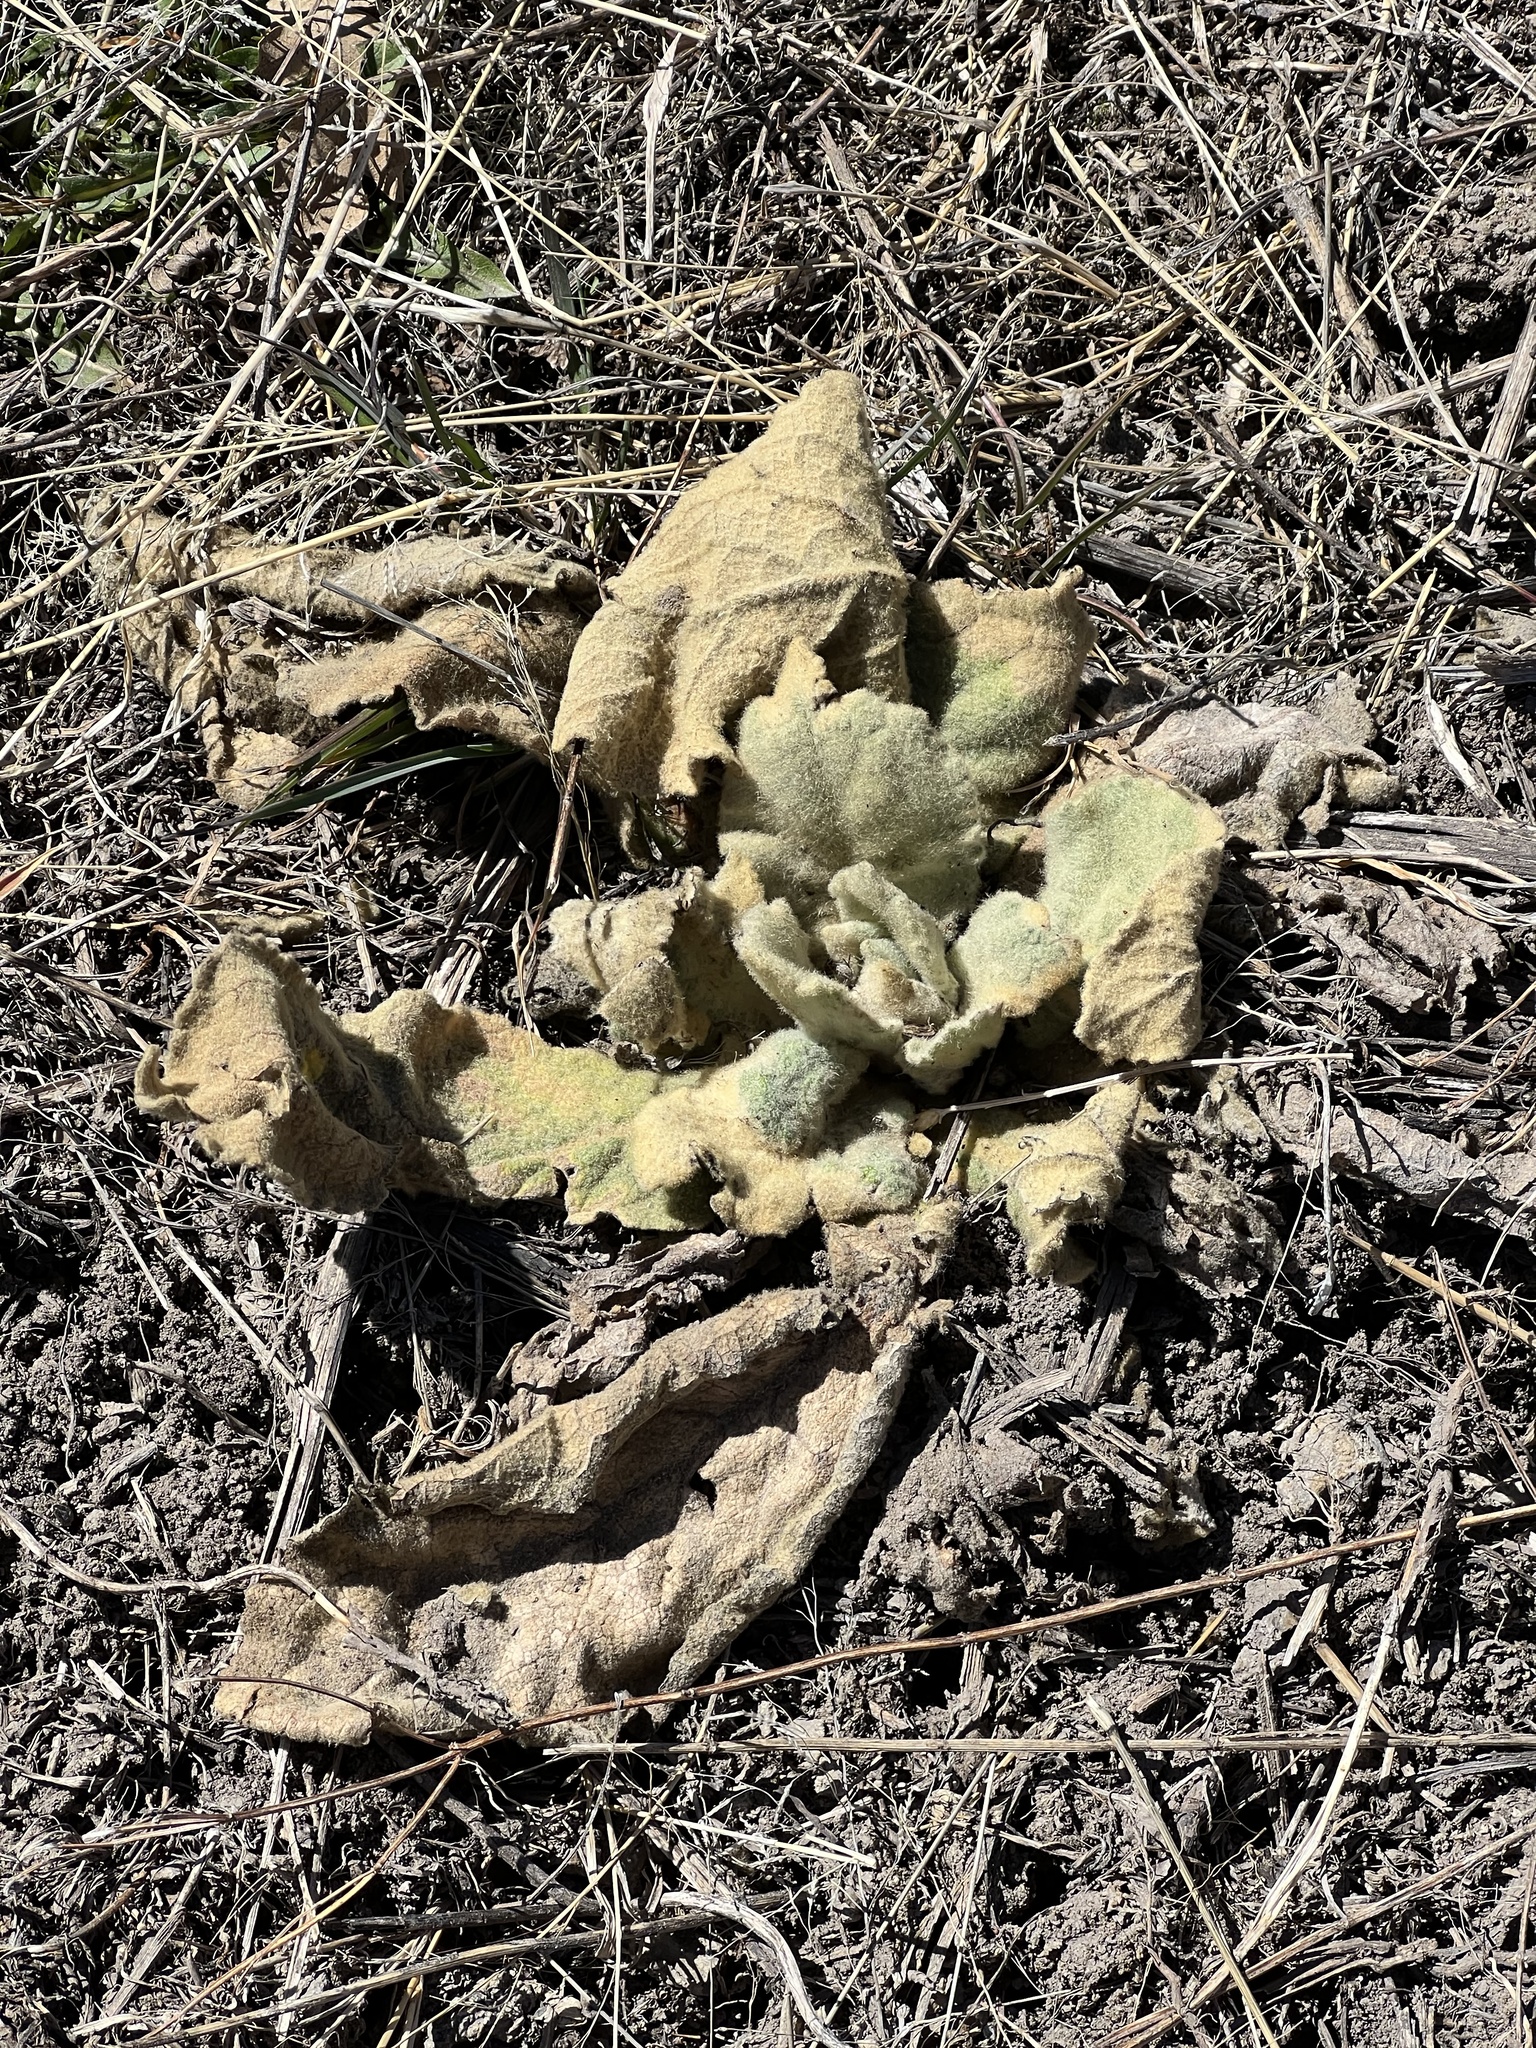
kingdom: Plantae
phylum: Tracheophyta
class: Magnoliopsida
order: Lamiales
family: Scrophulariaceae
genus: Verbascum
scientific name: Verbascum thapsus
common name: Common mullein
